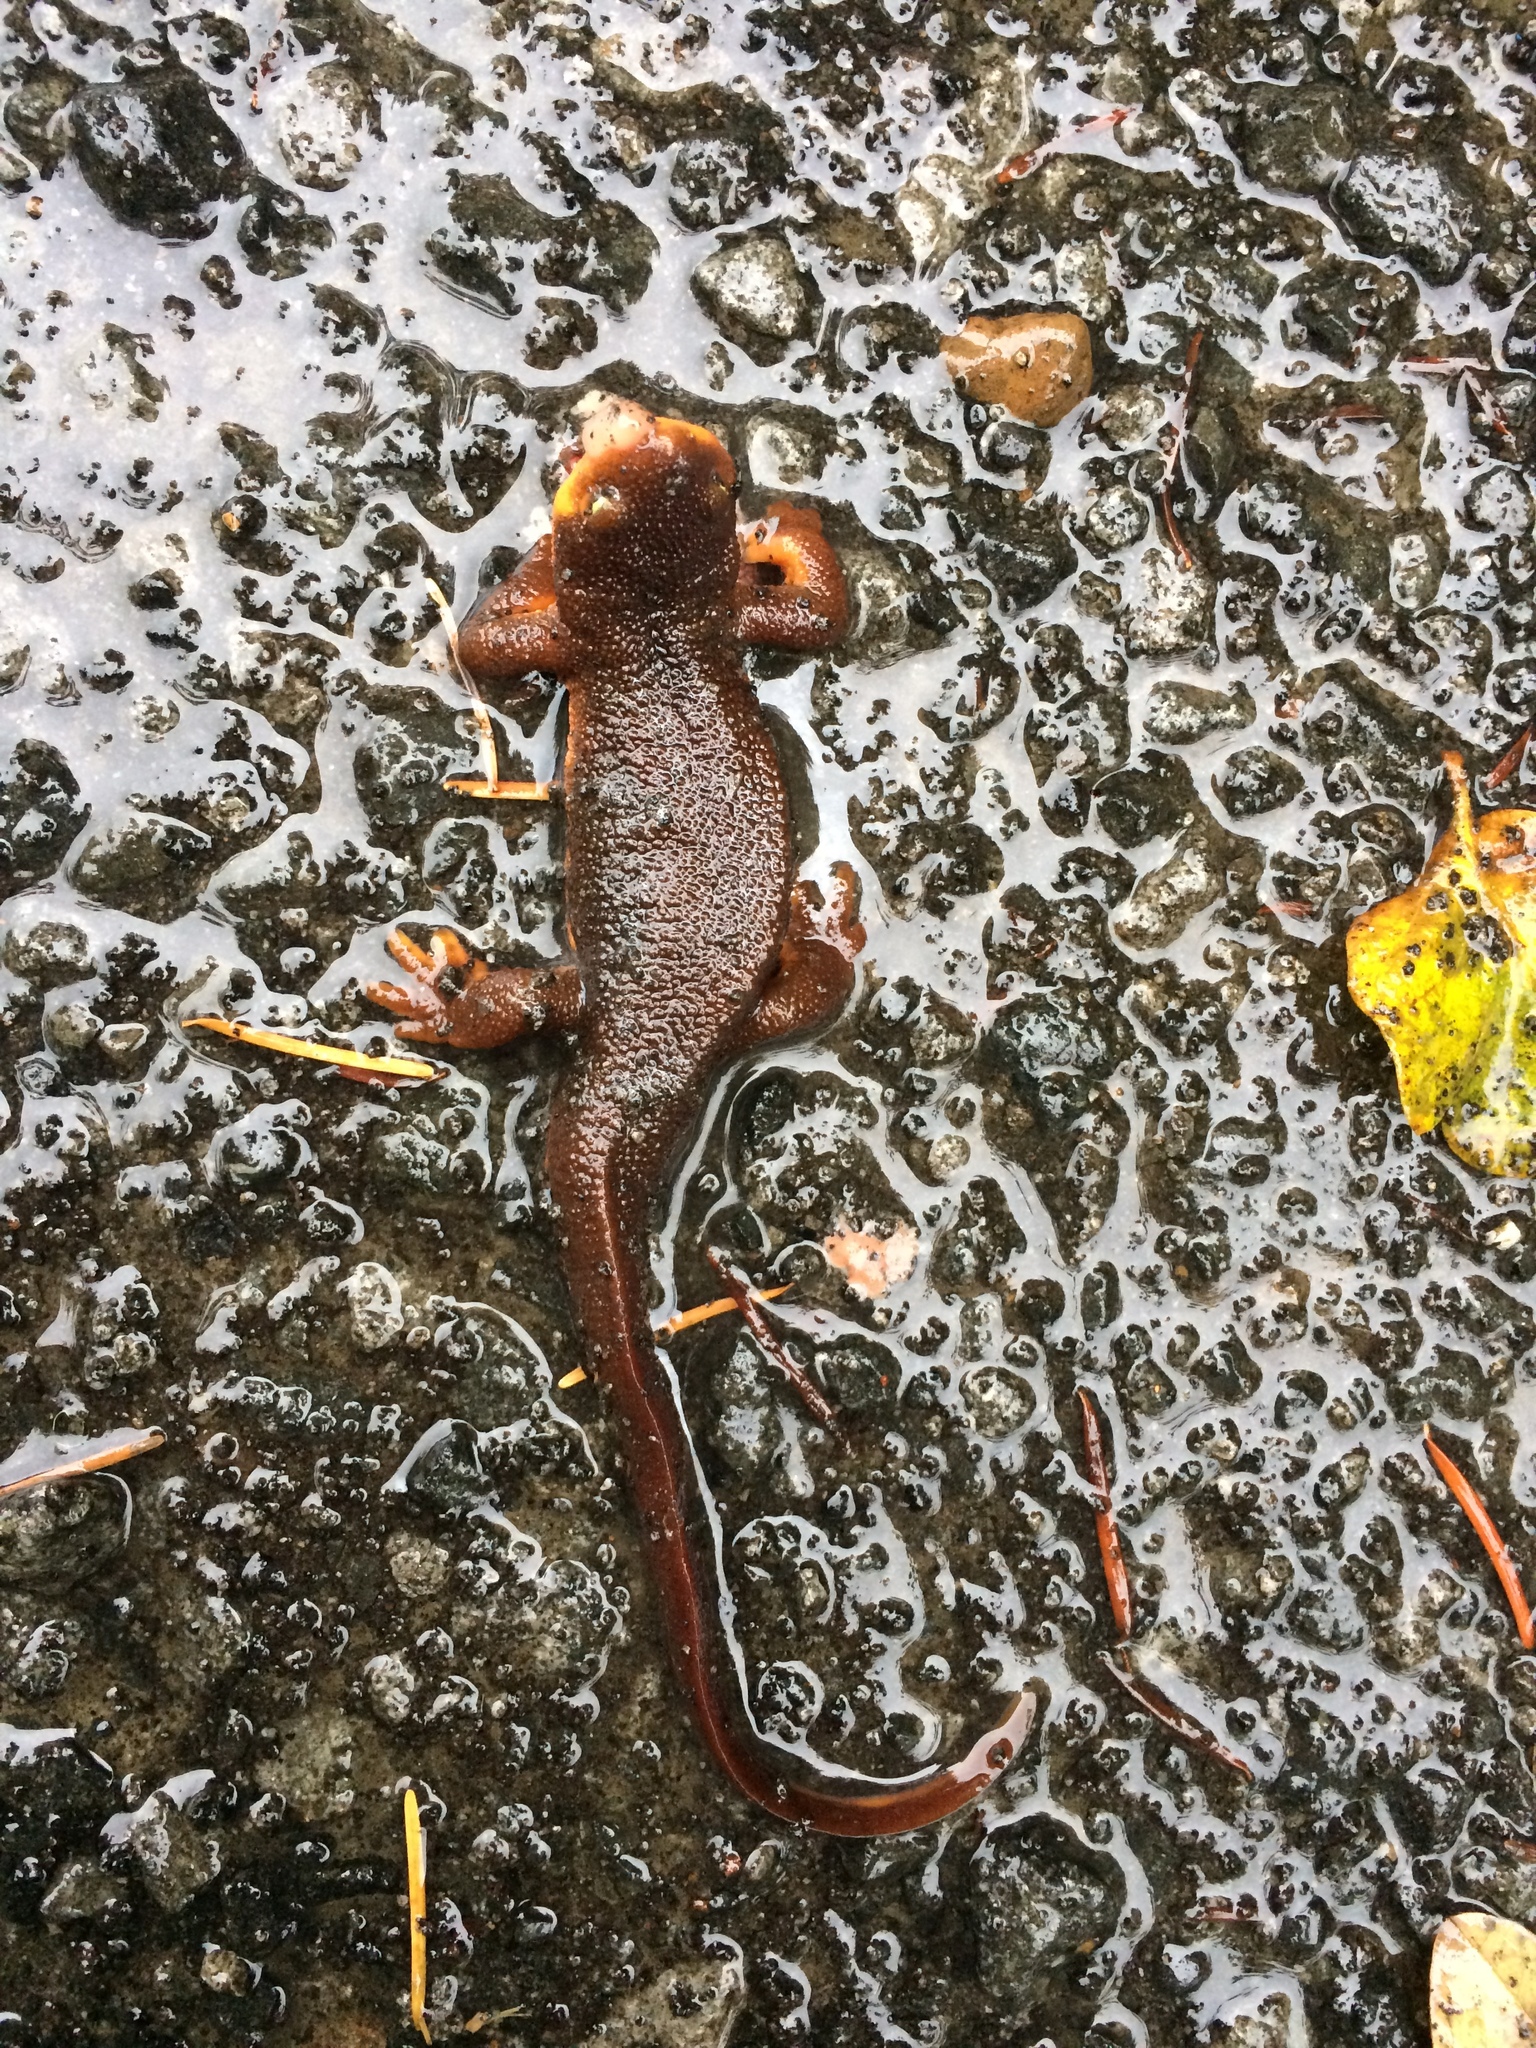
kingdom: Animalia
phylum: Chordata
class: Amphibia
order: Caudata
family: Salamandridae
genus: Taricha
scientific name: Taricha granulosa
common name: Roughskin newt
